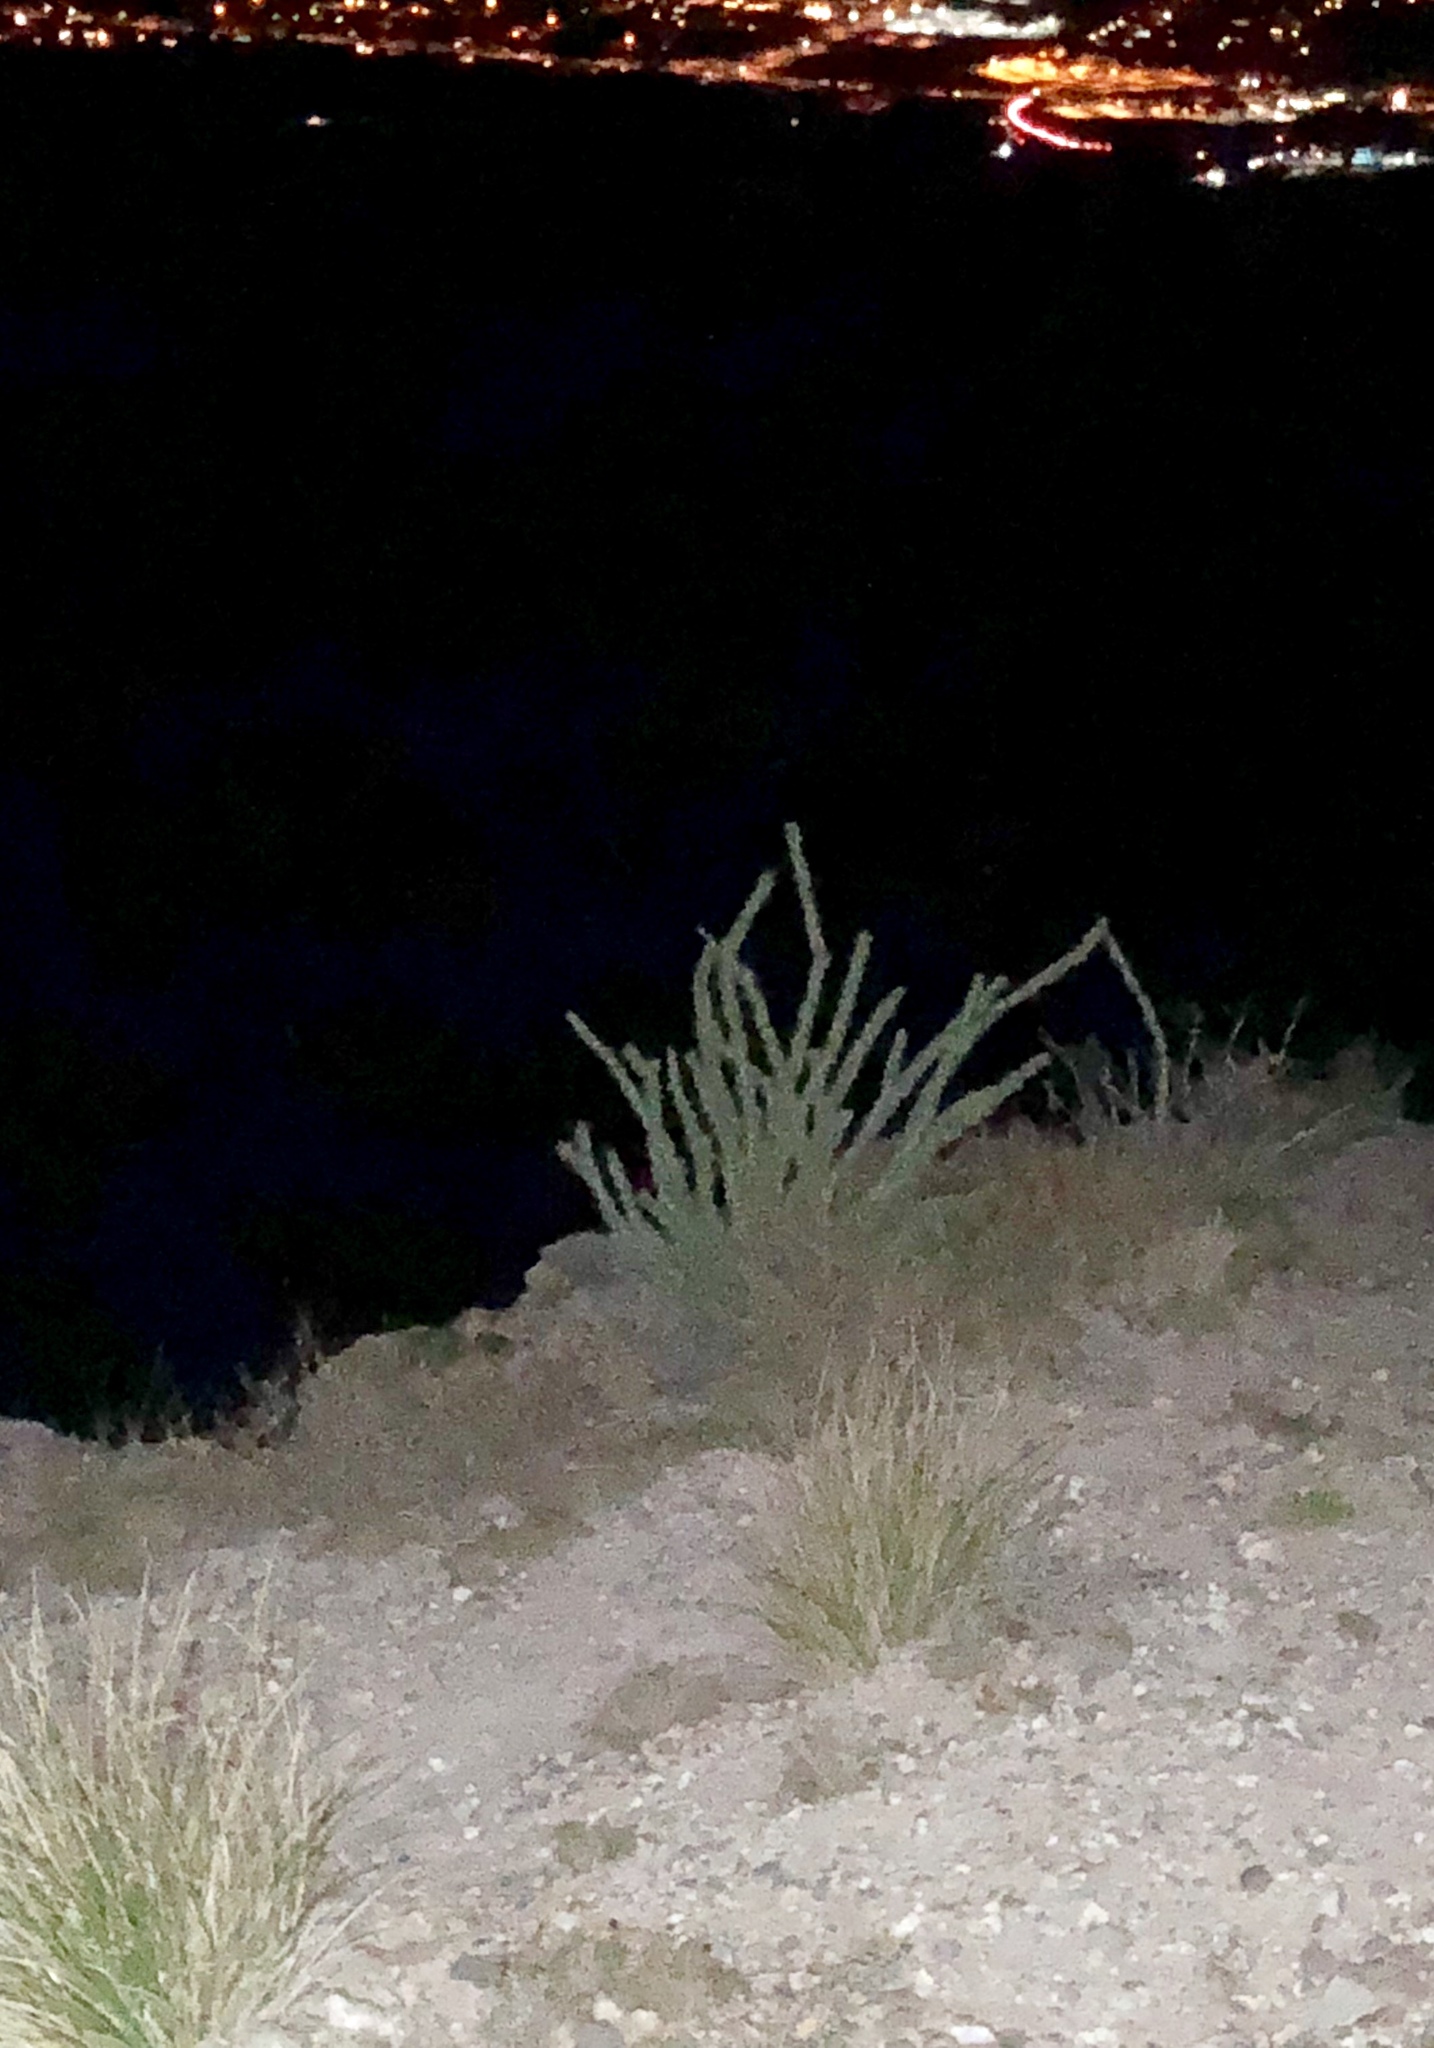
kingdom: Plantae
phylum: Tracheophyta
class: Magnoliopsida
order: Ericales
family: Fouquieriaceae
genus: Fouquieria
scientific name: Fouquieria splendens
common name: Vine-cactus
